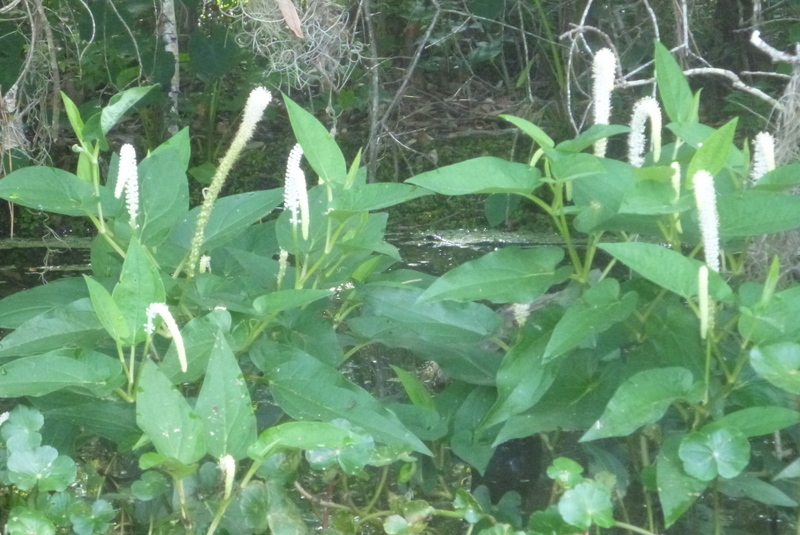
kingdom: Plantae
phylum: Tracheophyta
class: Magnoliopsida
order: Piperales
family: Saururaceae
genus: Saururus
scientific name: Saururus cernuus
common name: Lizard's-tail
